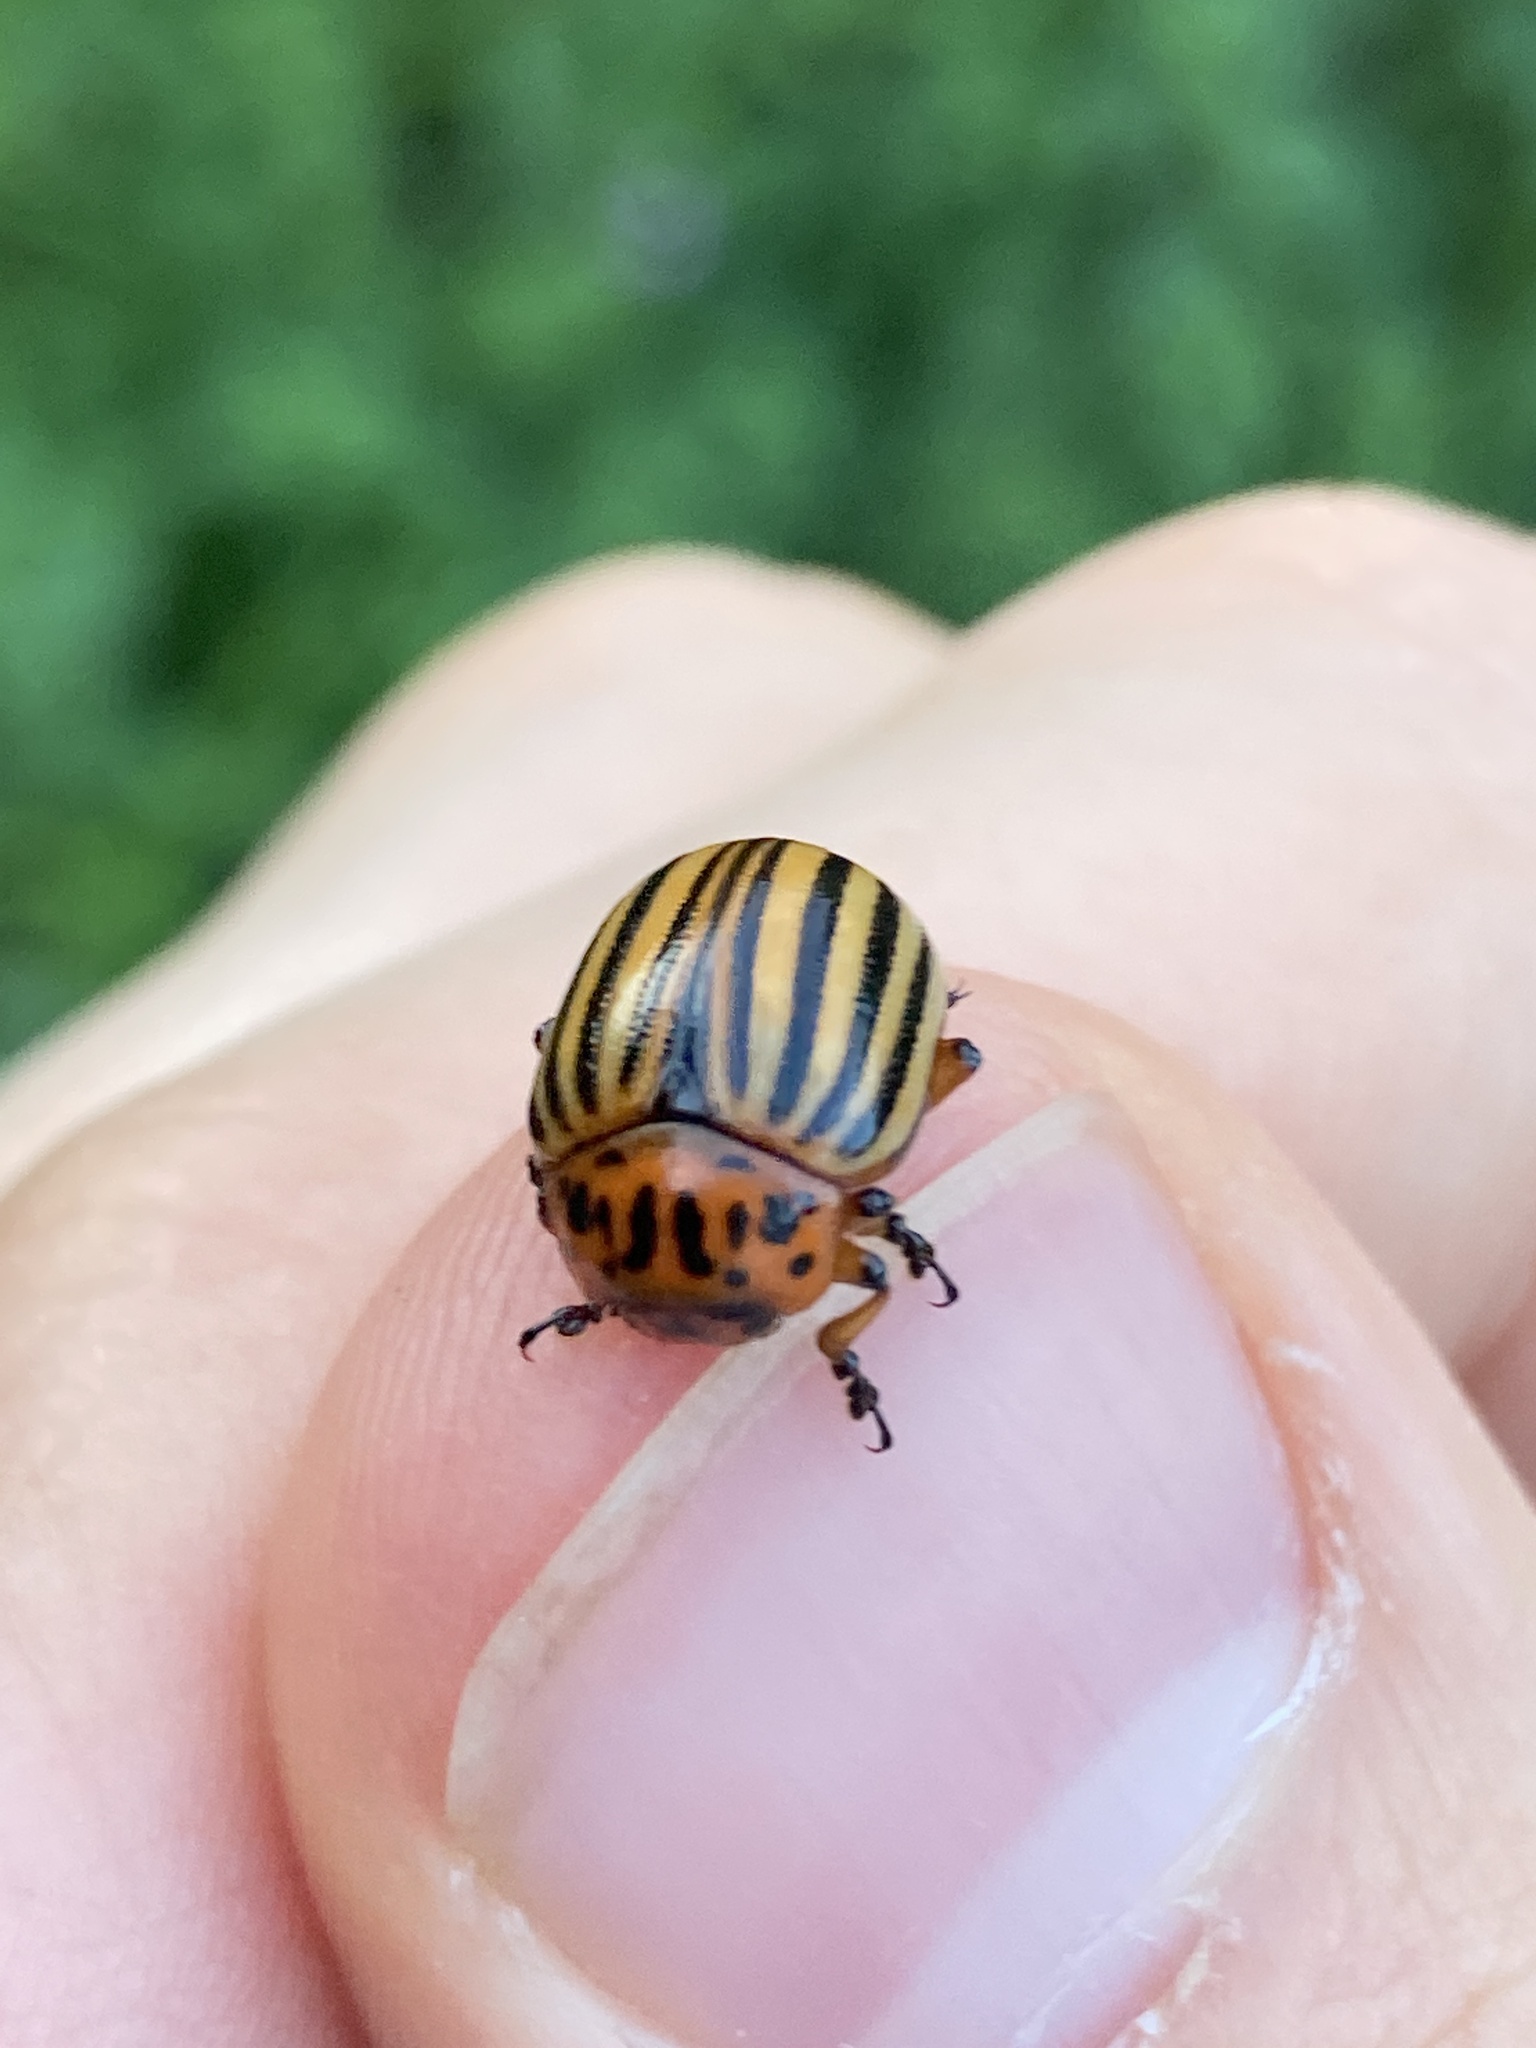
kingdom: Animalia
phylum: Arthropoda
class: Insecta
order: Coleoptera
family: Chrysomelidae
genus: Leptinotarsa
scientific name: Leptinotarsa decemlineata
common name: Colorado potato beetle
